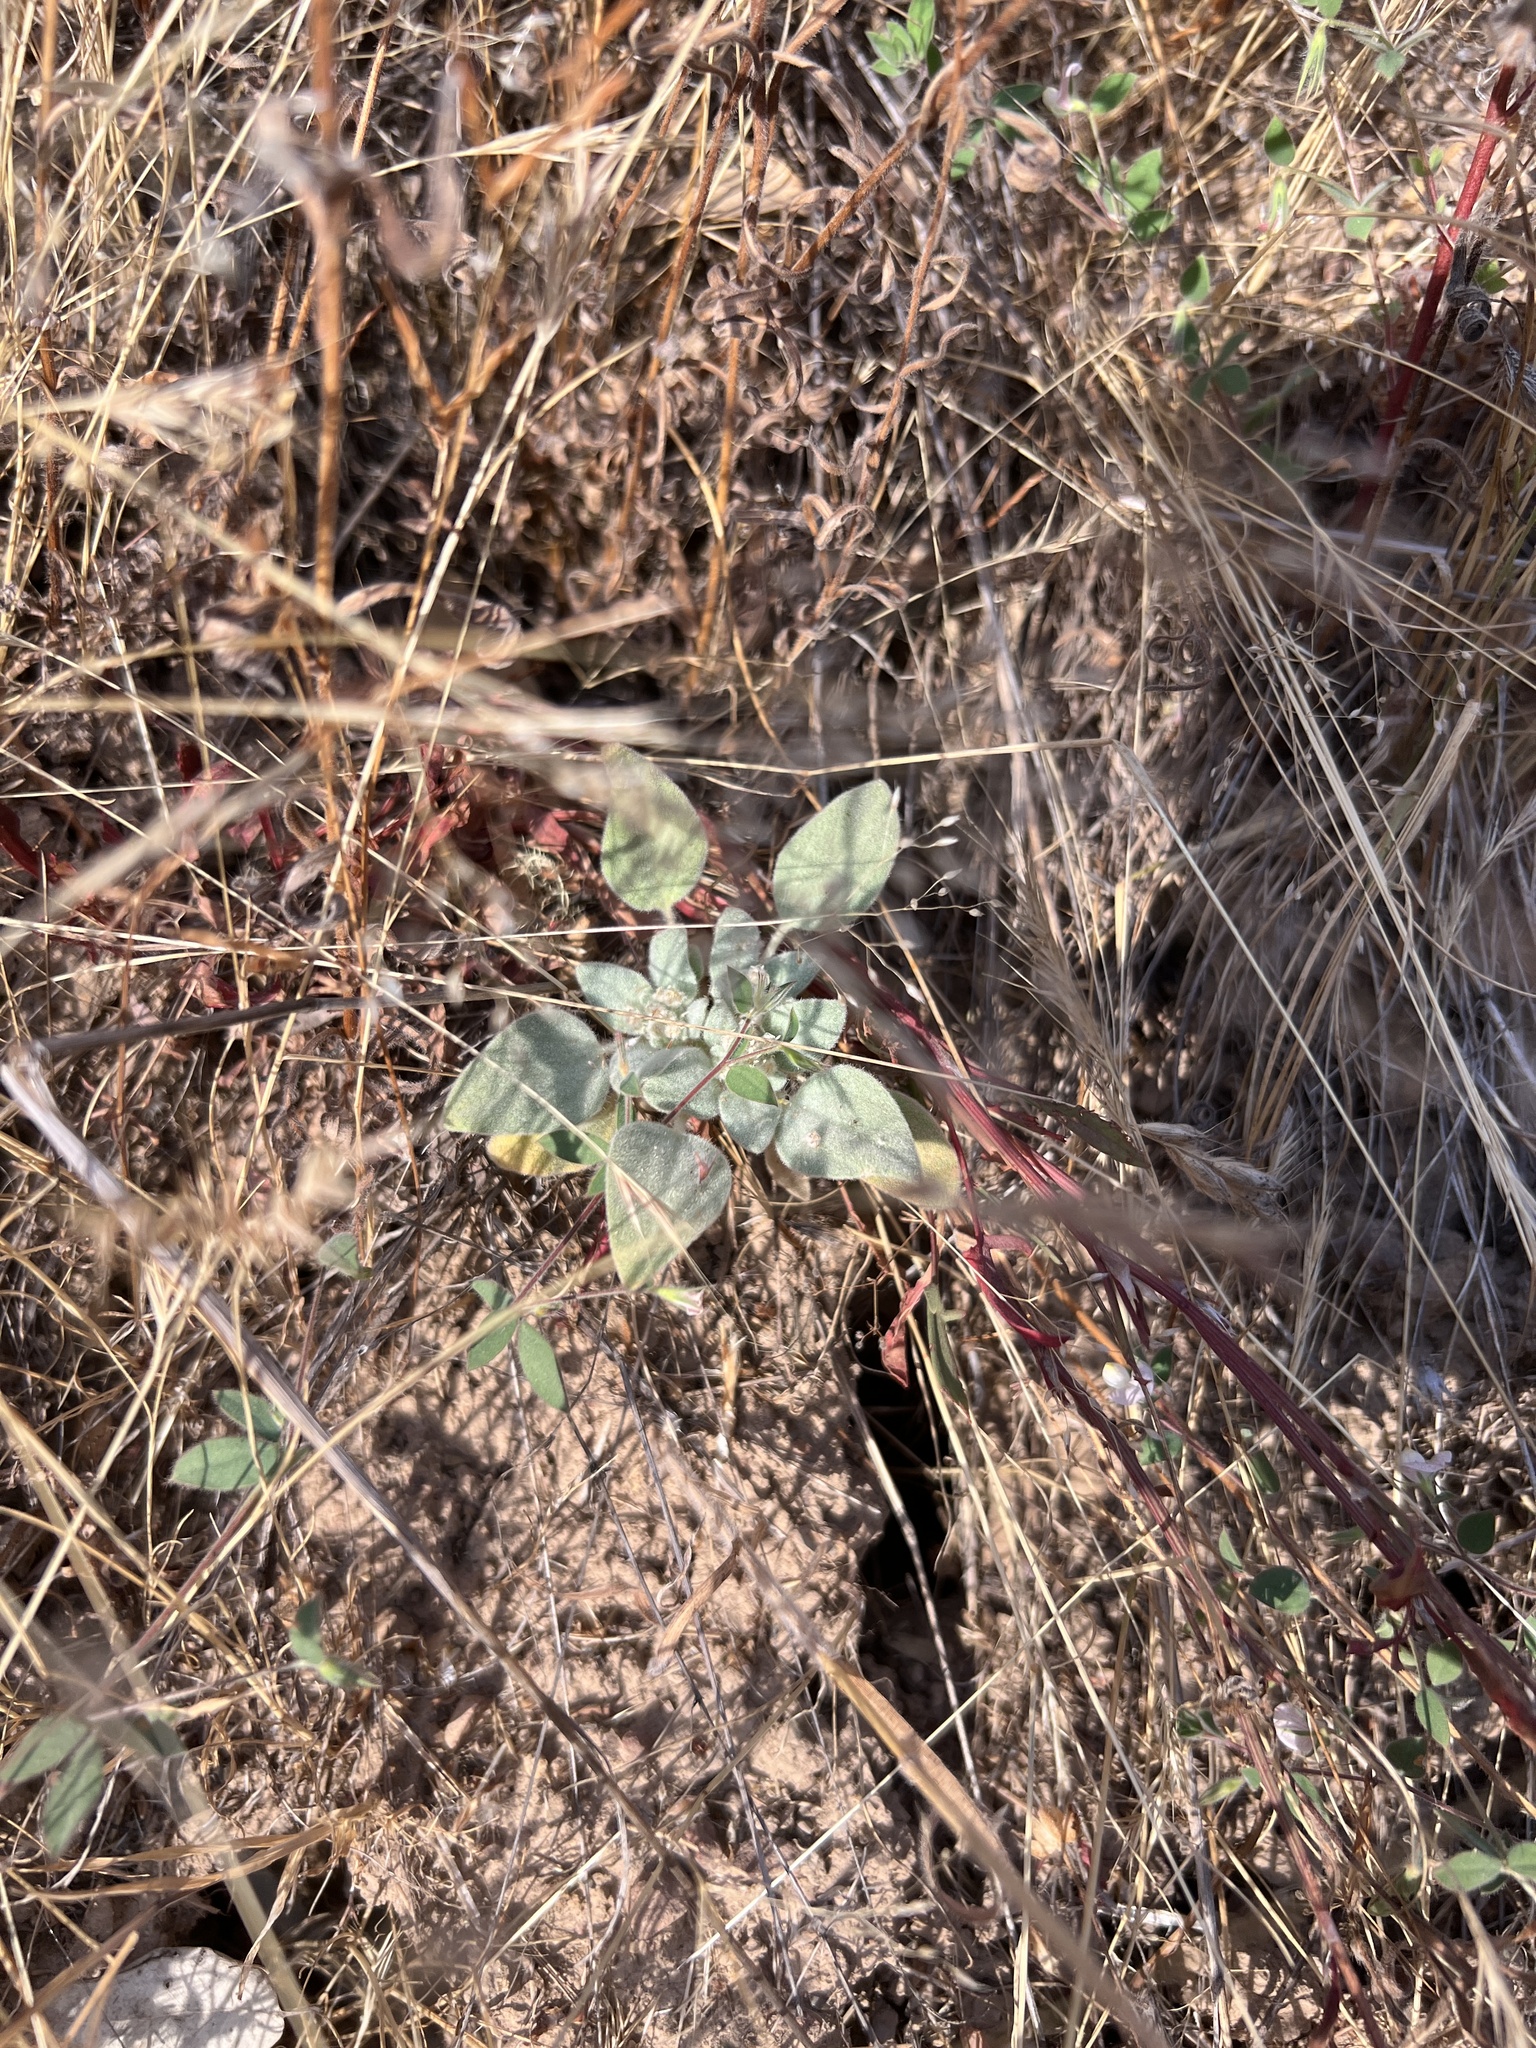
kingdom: Plantae
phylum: Tracheophyta
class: Magnoliopsida
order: Malpighiales
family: Euphorbiaceae
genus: Croton
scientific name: Croton setiger
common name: Dove weed
